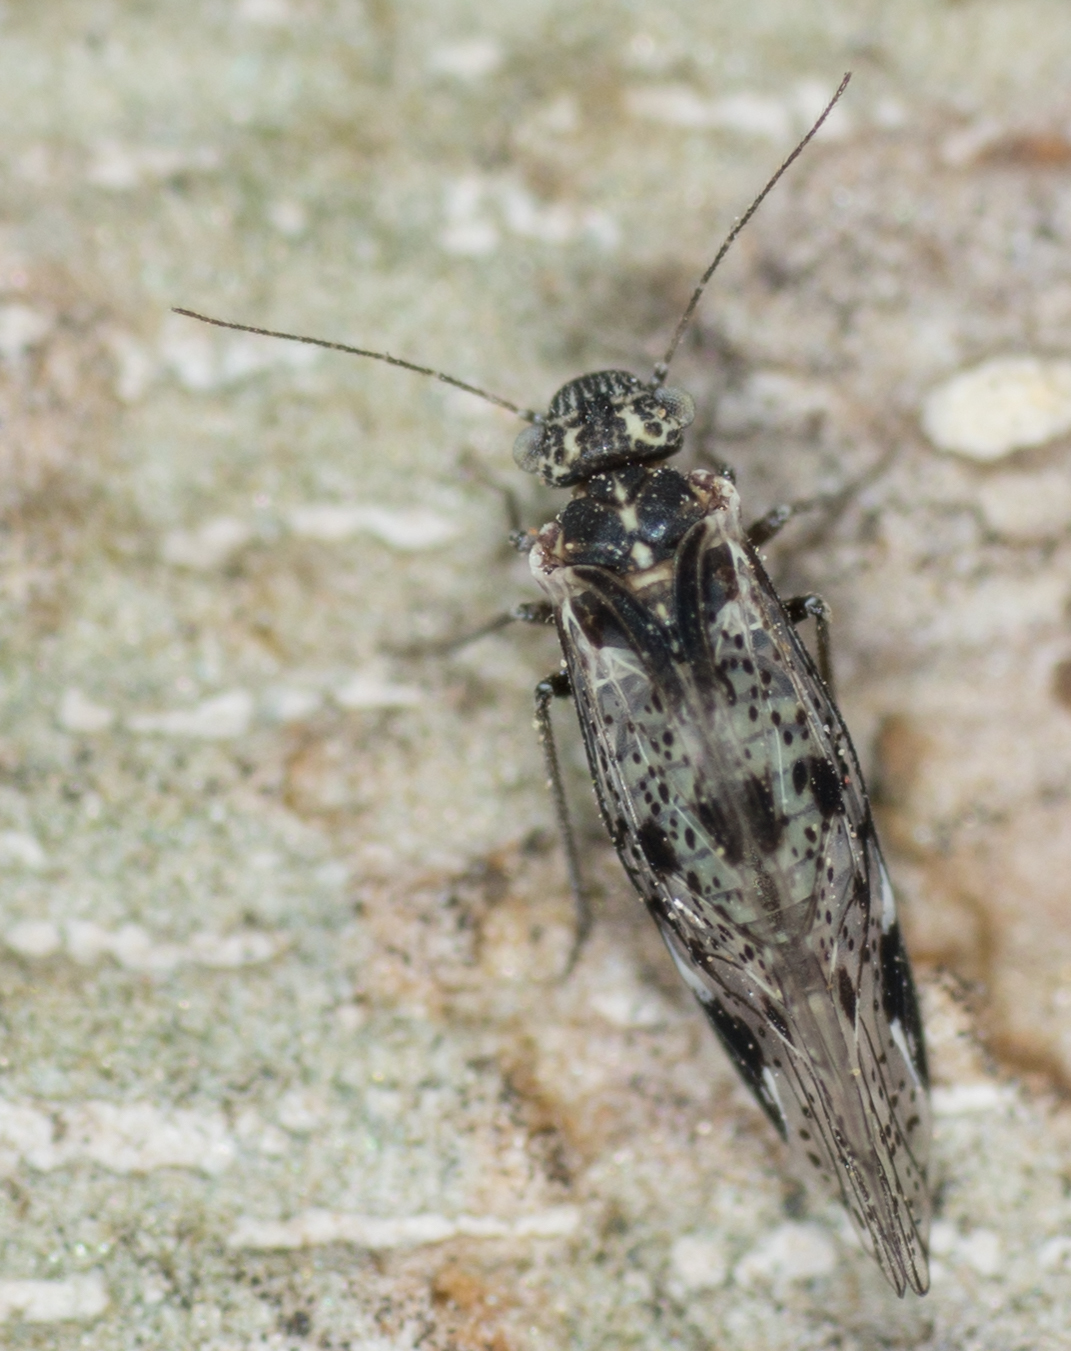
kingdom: Animalia
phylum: Arthropoda
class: Insecta
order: Psocodea
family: Psocidae
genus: Loensia
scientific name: Loensia conspersa
